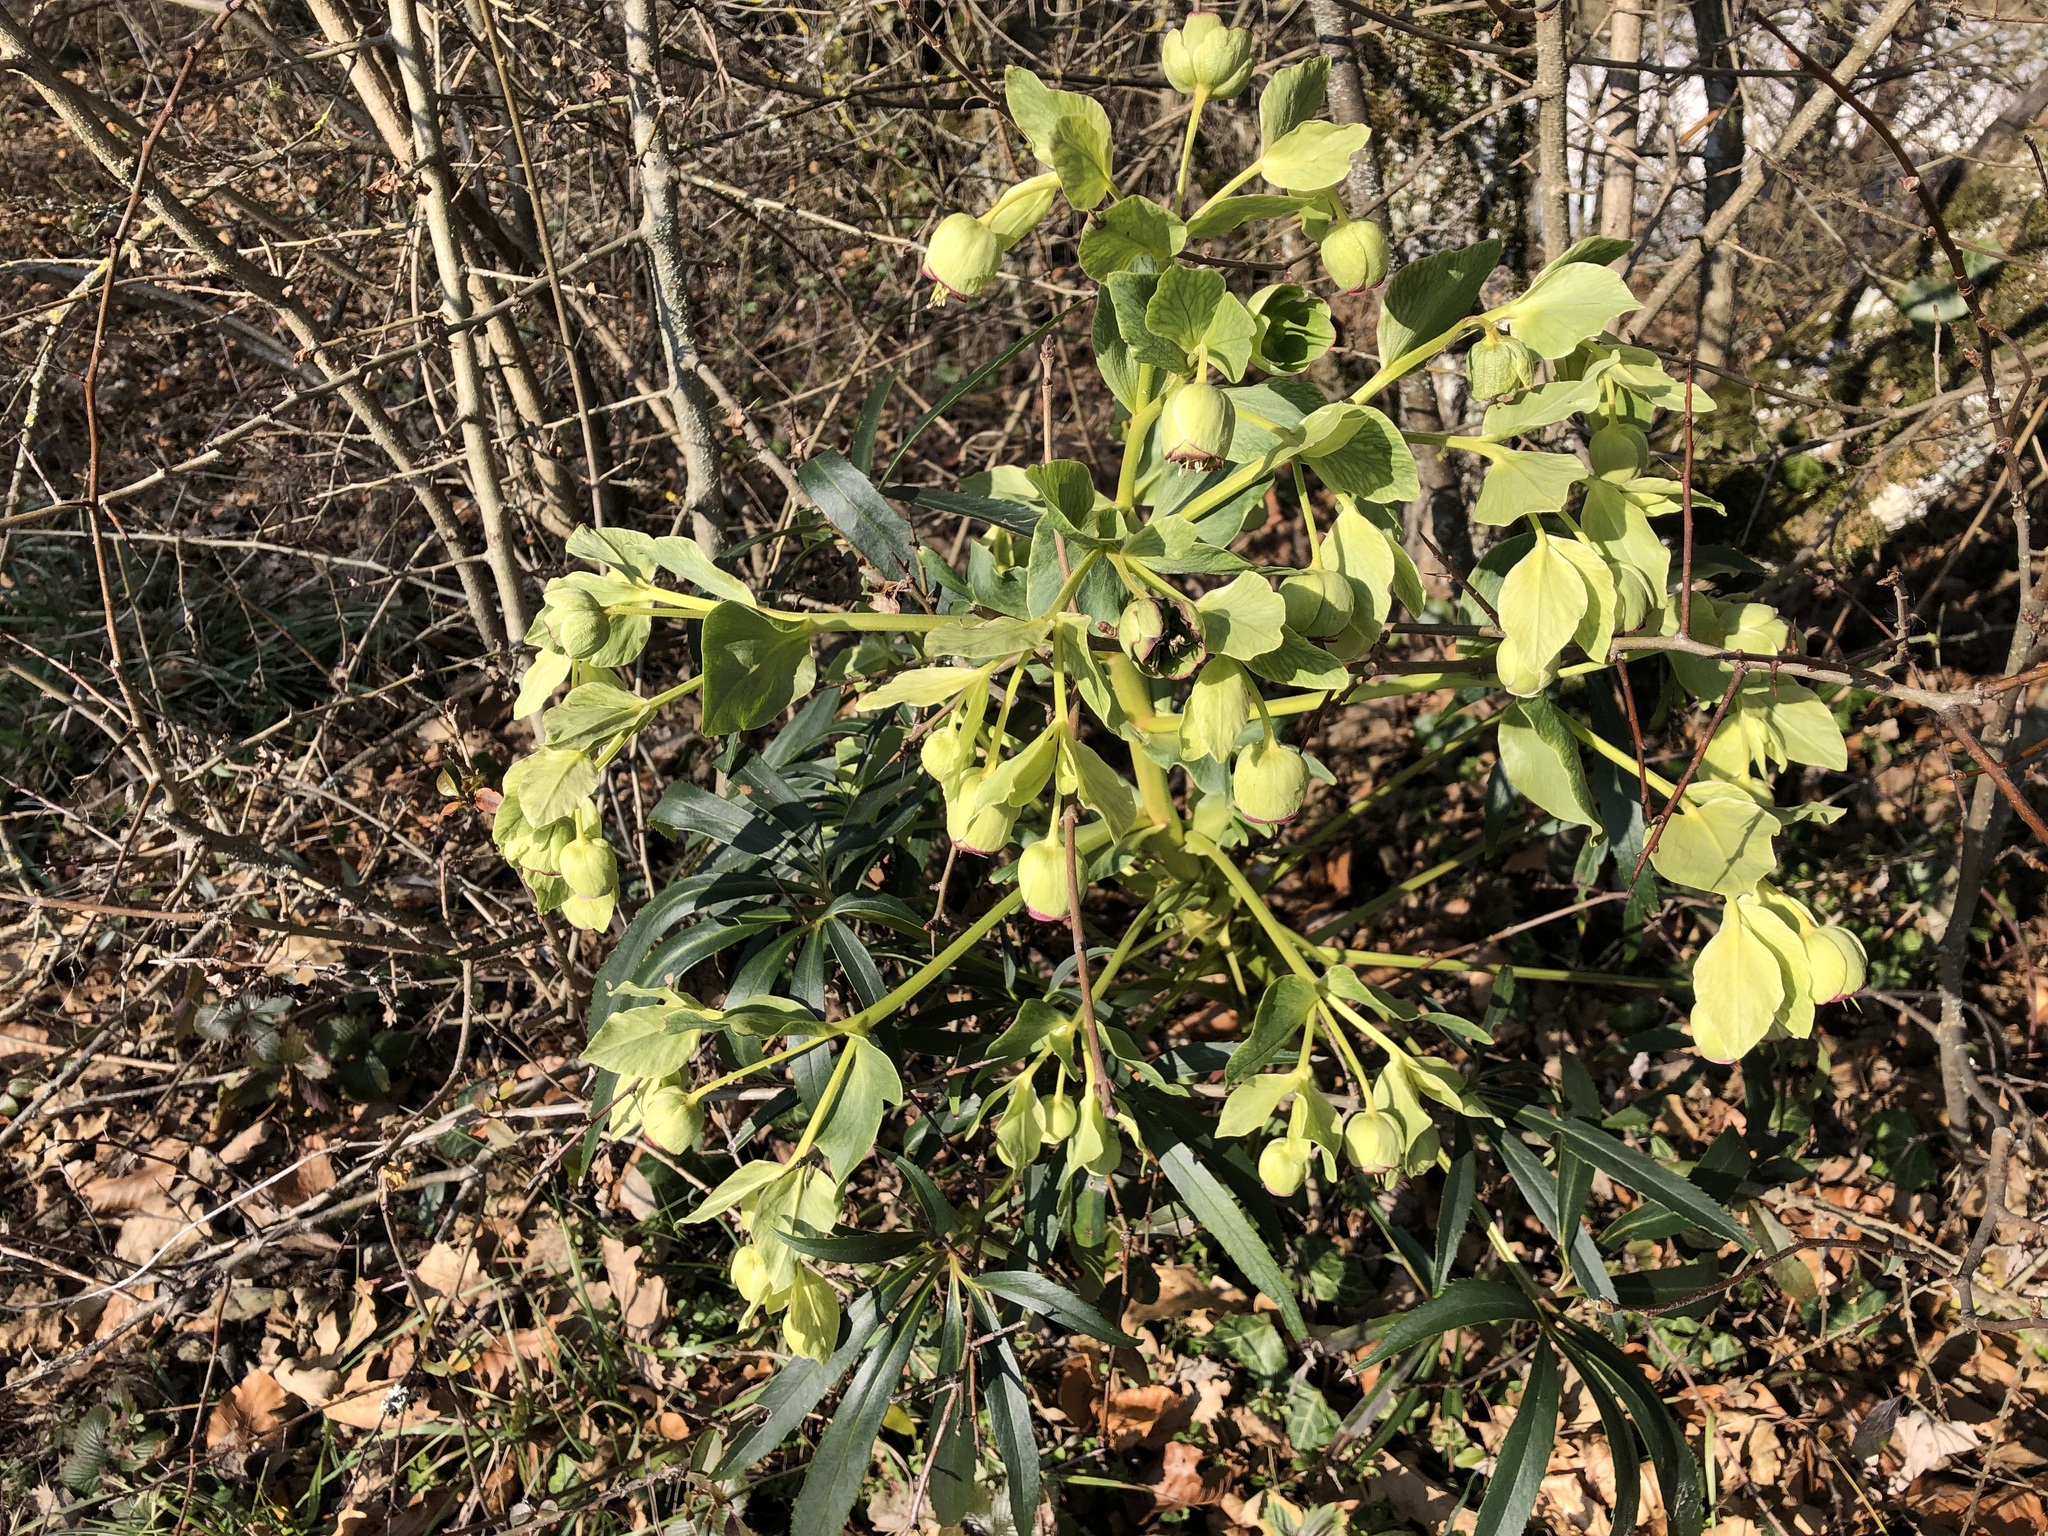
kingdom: Plantae
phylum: Tracheophyta
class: Magnoliopsida
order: Ranunculales
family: Ranunculaceae
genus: Helleborus
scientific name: Helleborus foetidus
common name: Stinking hellebore
